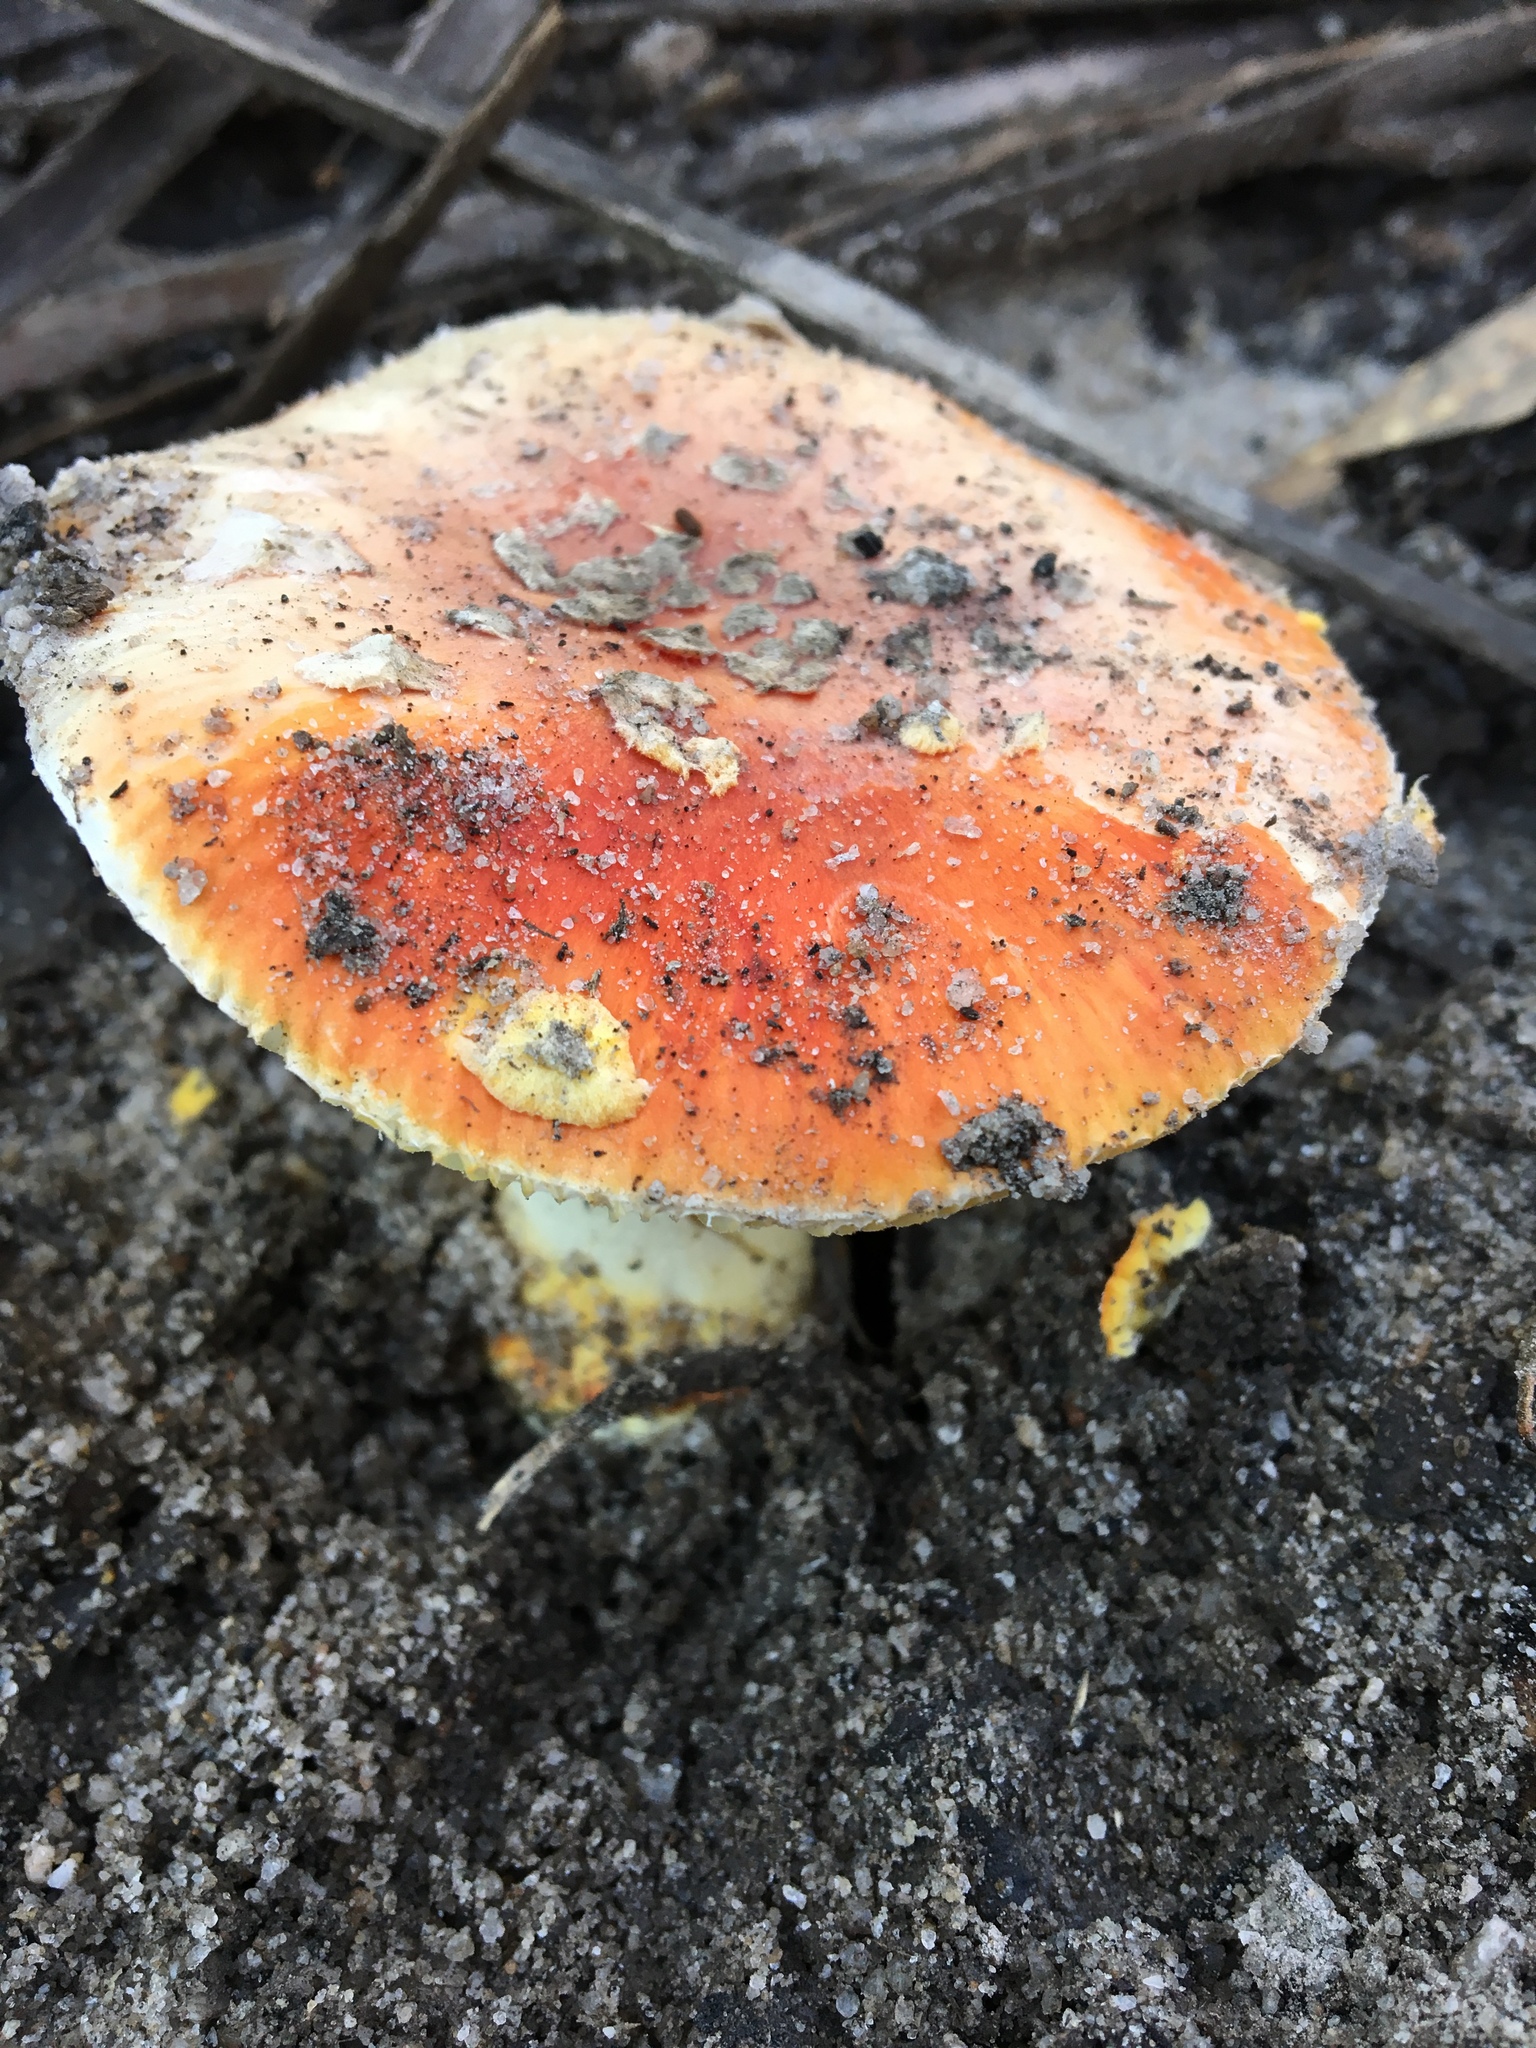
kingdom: Fungi
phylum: Basidiomycota
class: Agaricomycetes
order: Agaricales
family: Amanitaceae
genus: Amanita
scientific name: Amanita xanthocephala
